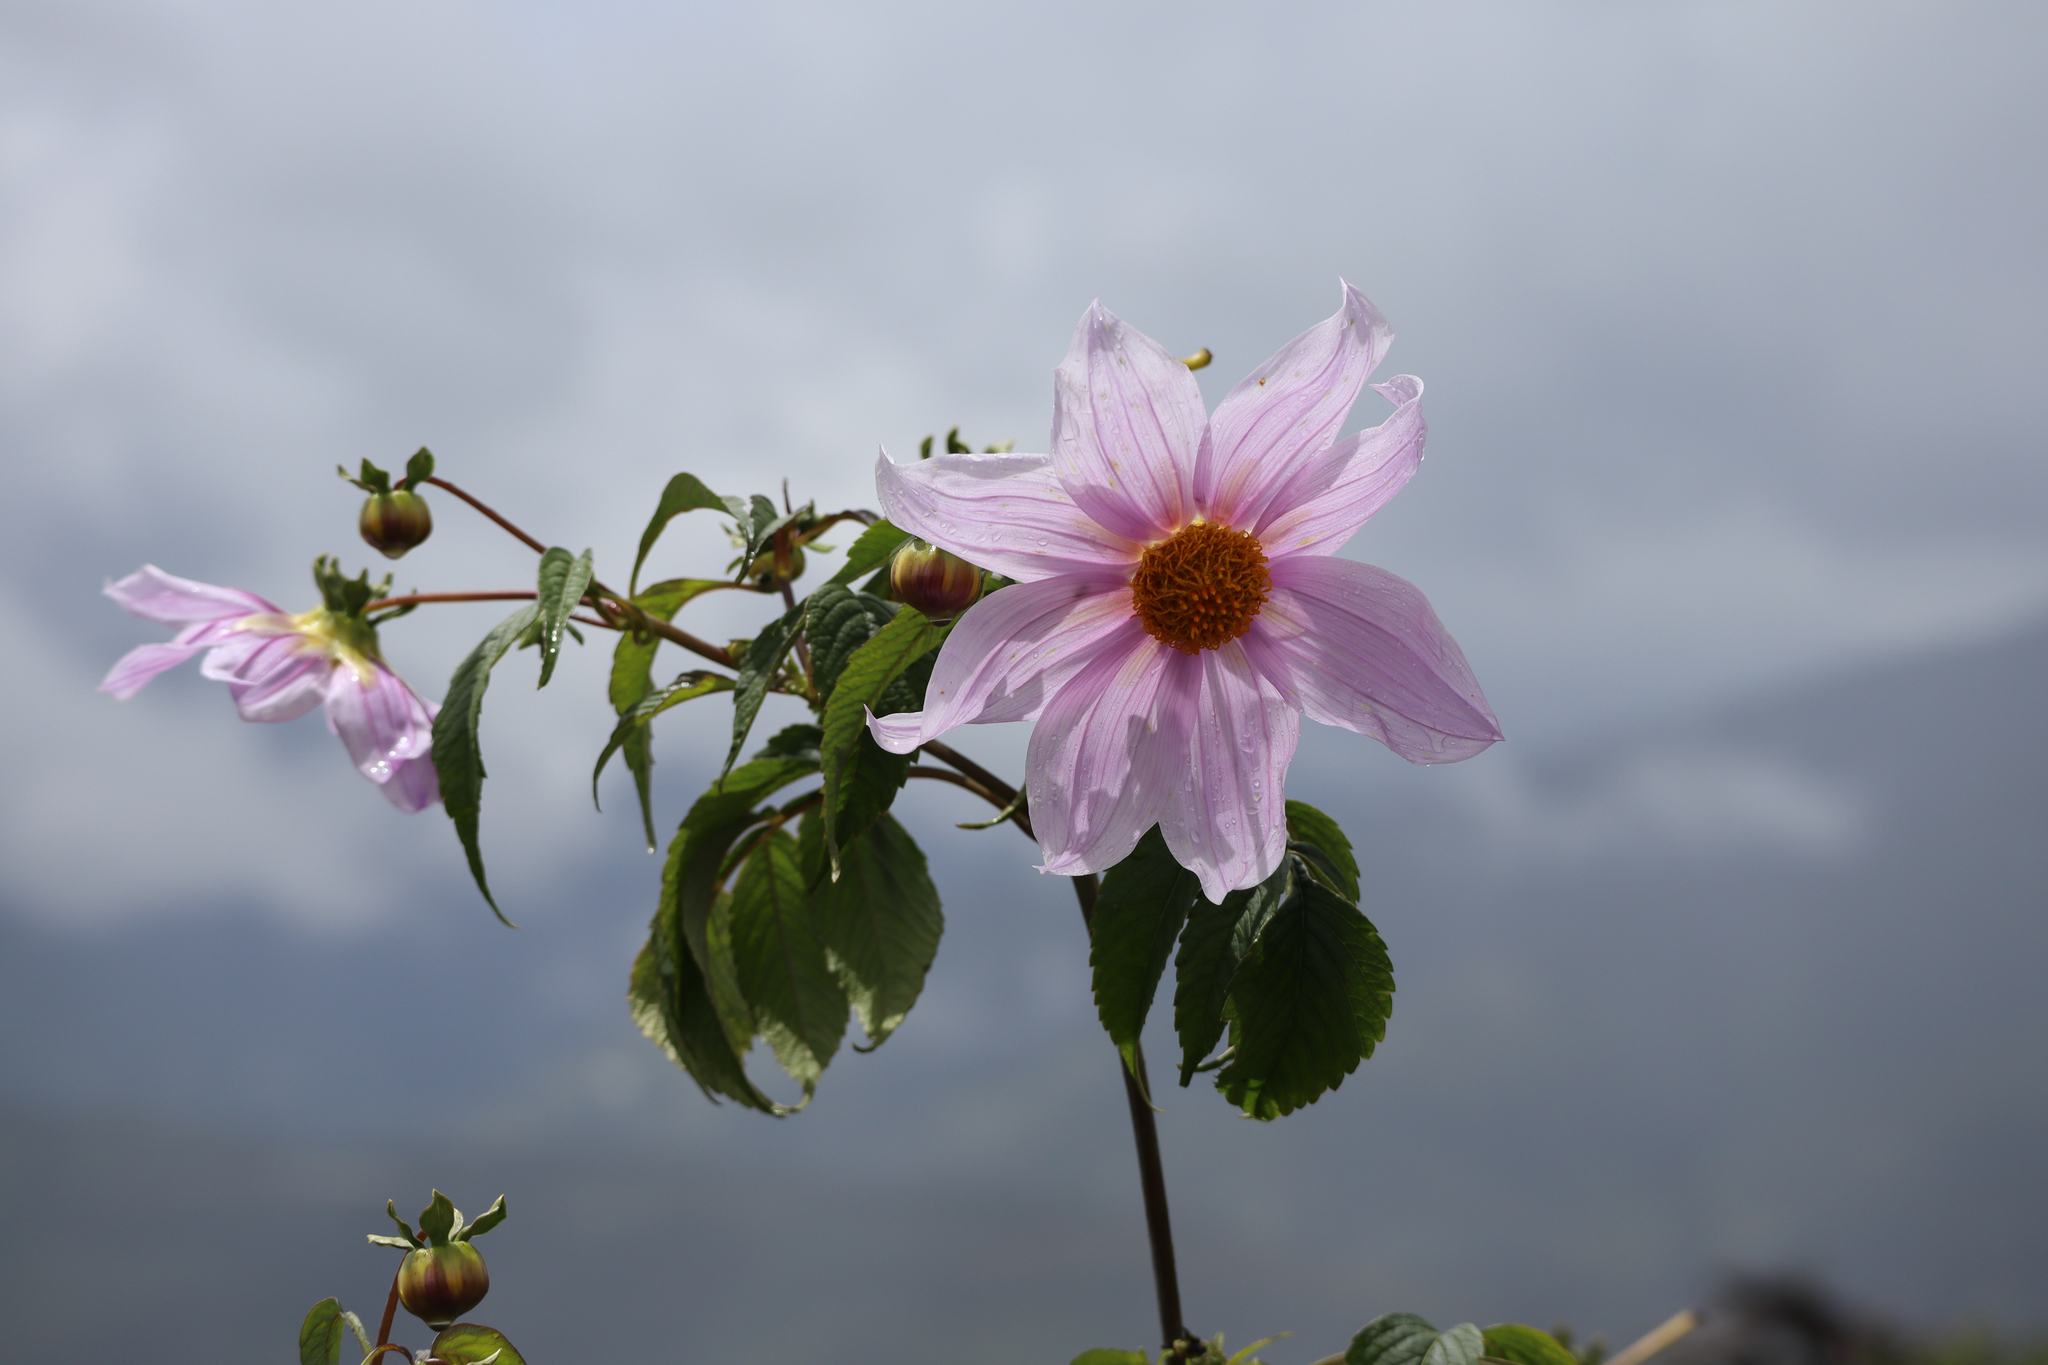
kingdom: Plantae
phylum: Tracheophyta
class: Magnoliopsida
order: Asterales
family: Asteraceae
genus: Dahlia
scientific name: Dahlia imperialis
